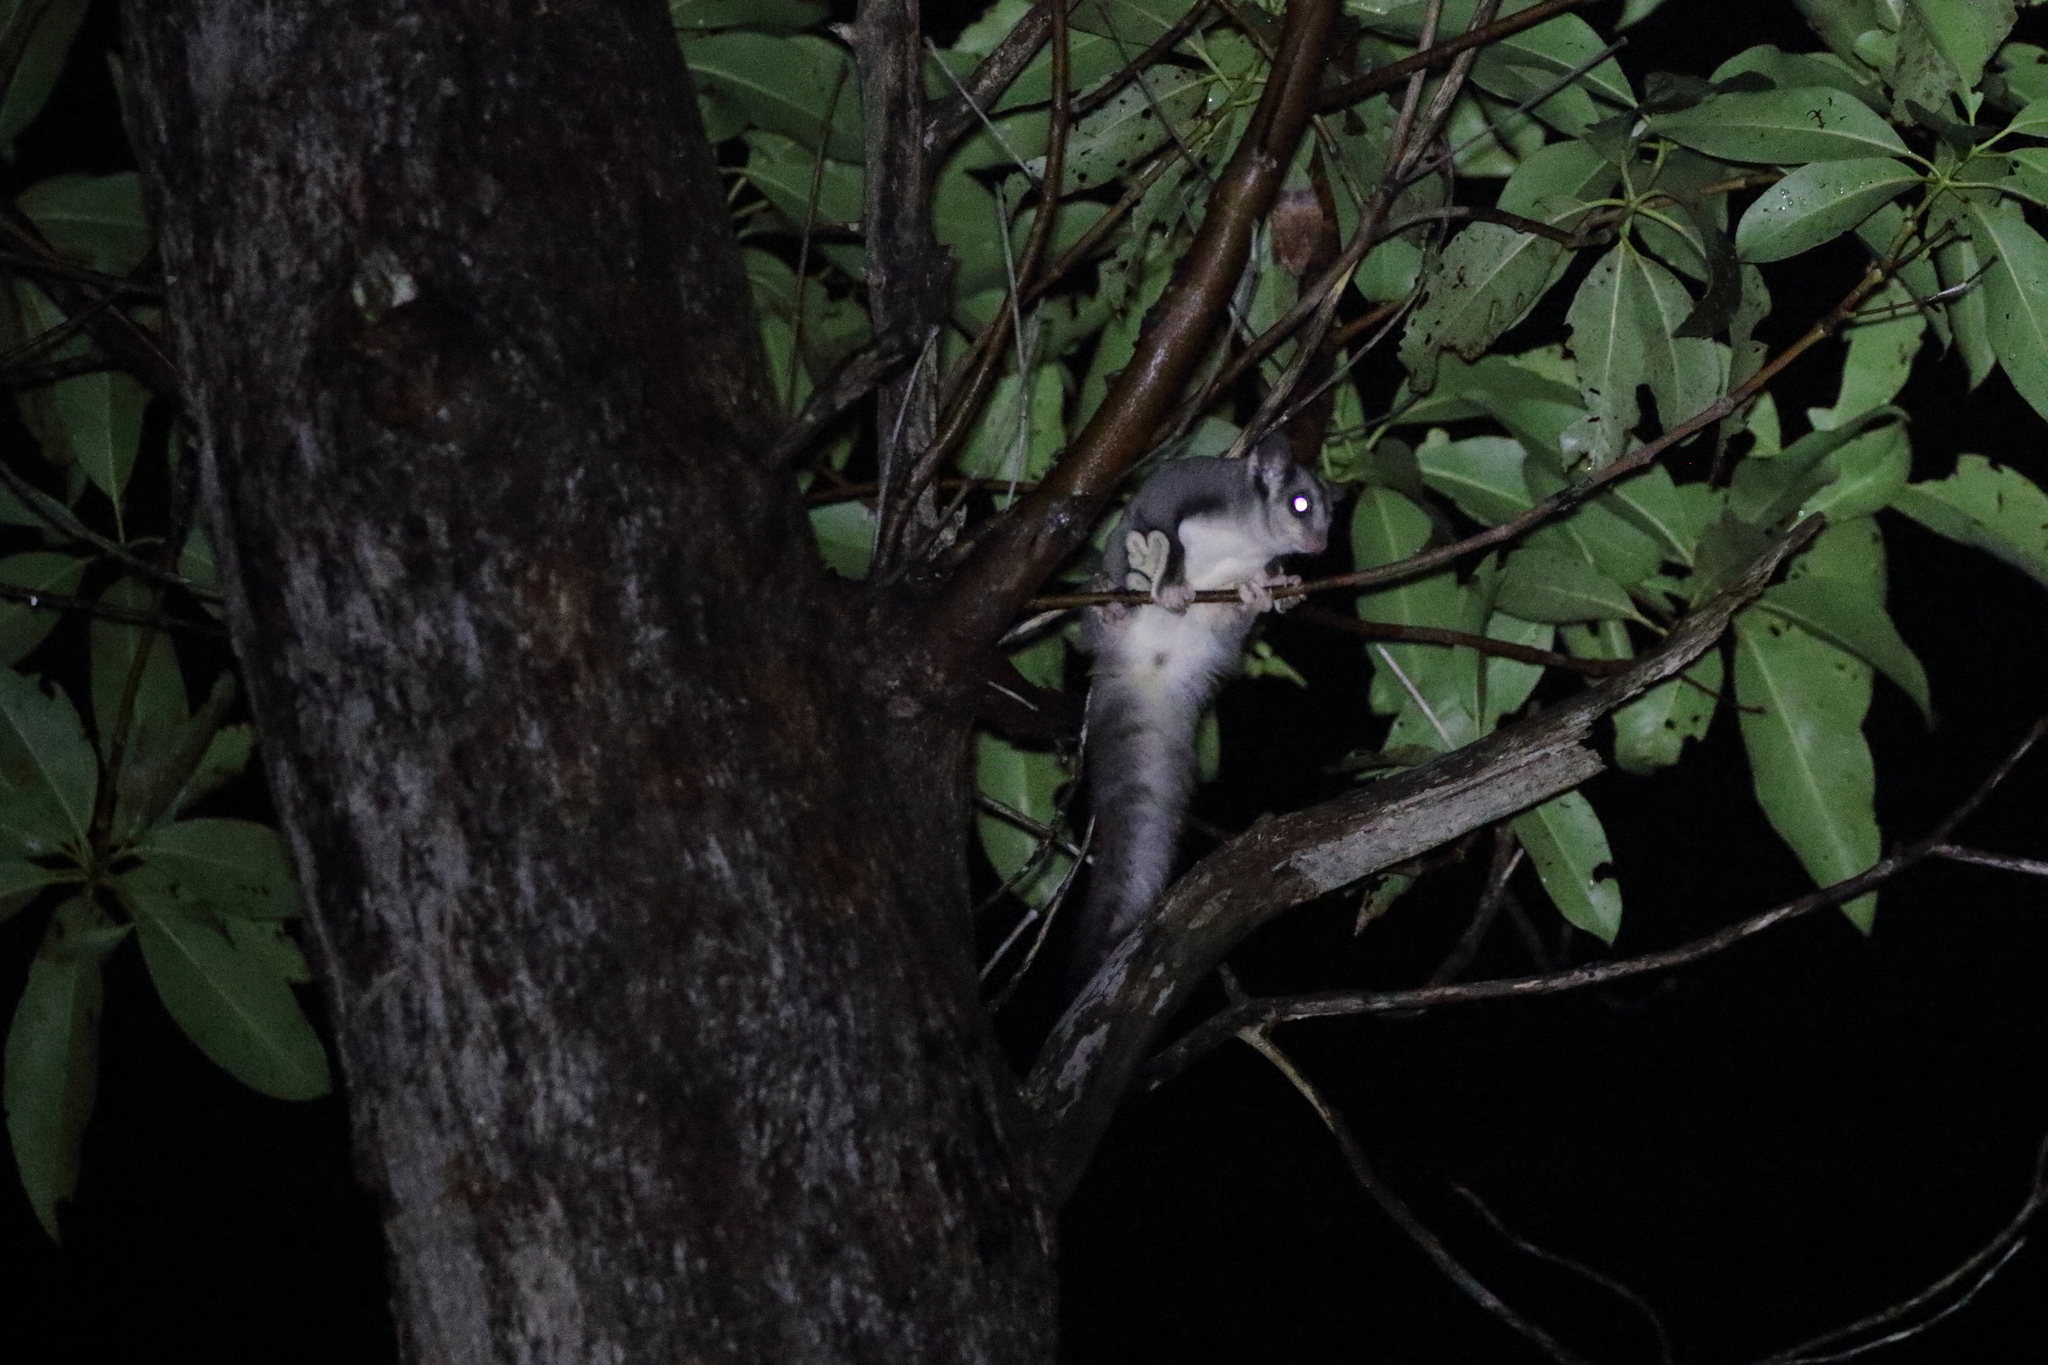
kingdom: Animalia
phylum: Chordata
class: Mammalia
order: Diprotodontia
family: Petauridae
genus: Petaurus
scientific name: Petaurus norfolcensis
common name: Squirrel glider
